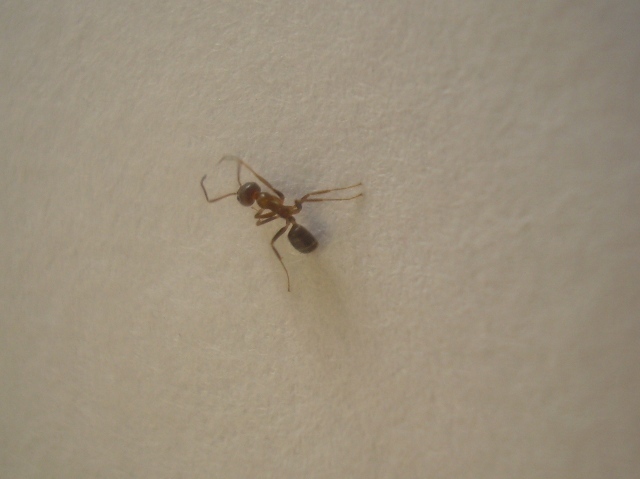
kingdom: Animalia
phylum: Arthropoda
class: Insecta
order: Hymenoptera
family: Formicidae
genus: Linepithema
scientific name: Linepithema humile
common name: Argentine ant
